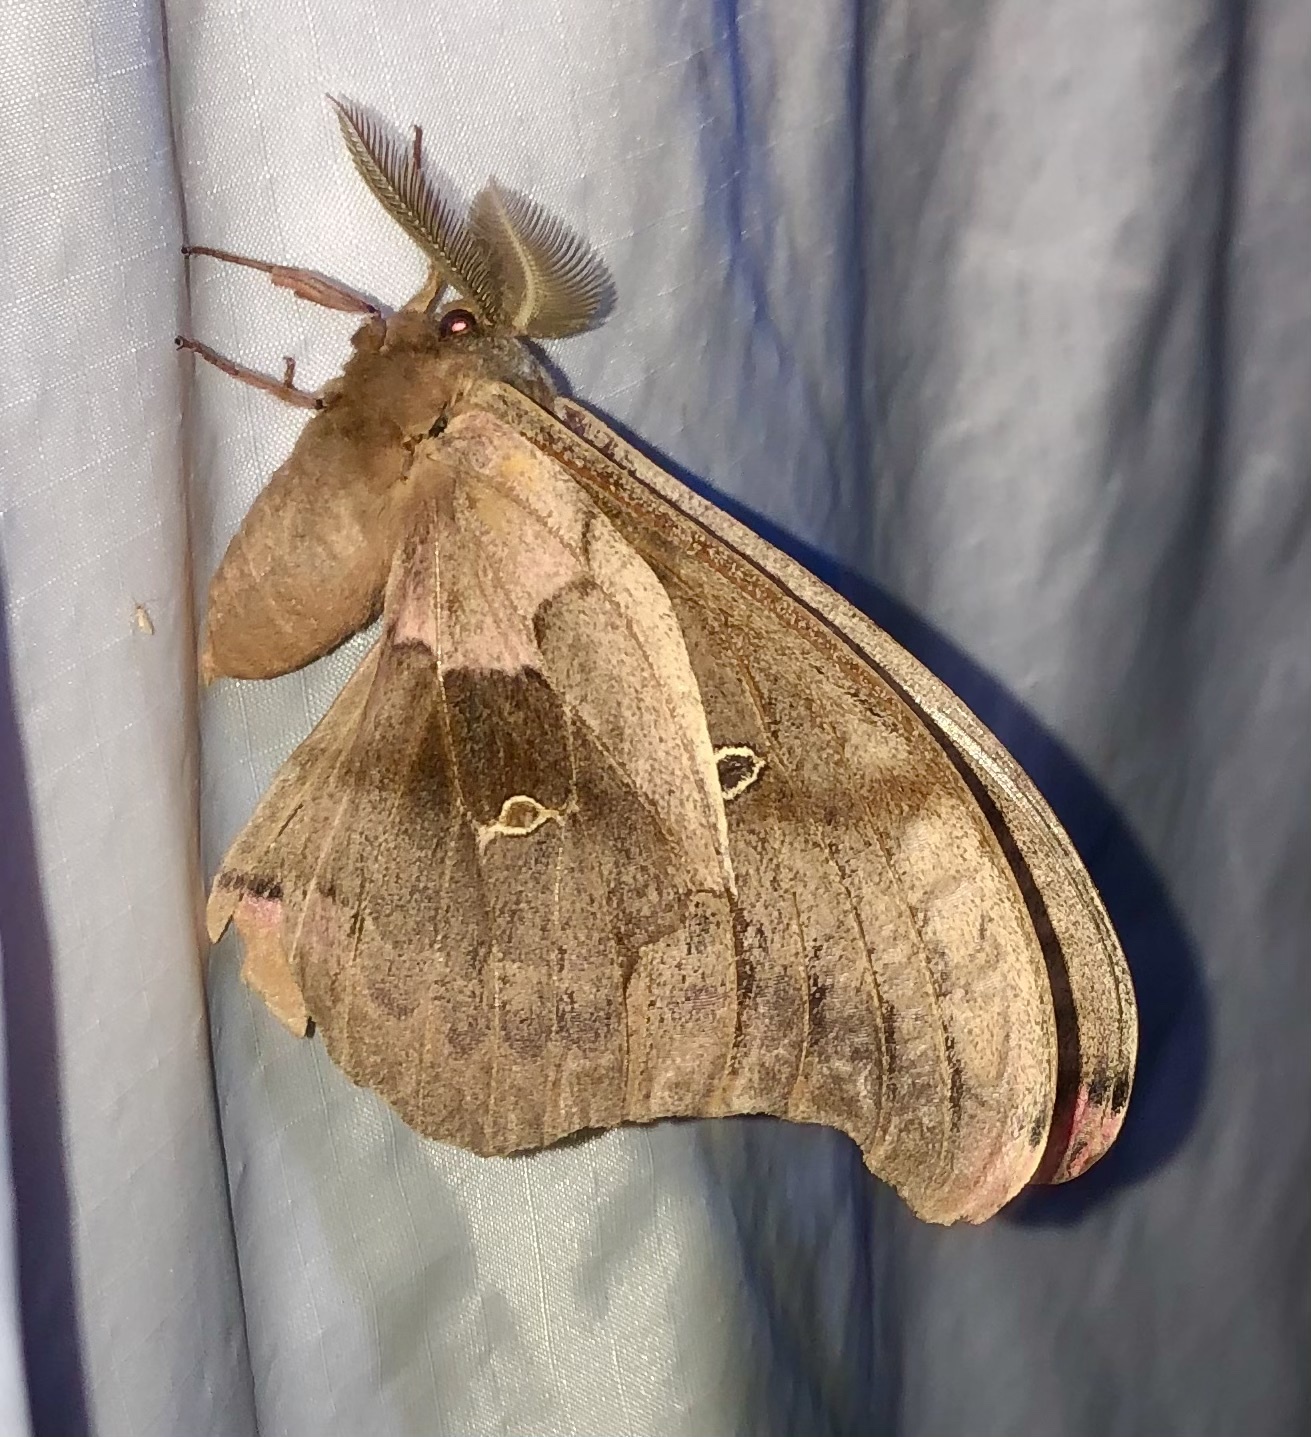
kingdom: Animalia
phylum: Arthropoda
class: Insecta
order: Lepidoptera
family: Saturniidae
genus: Antheraea
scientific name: Antheraea polyphemus
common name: Polyphemus moth
